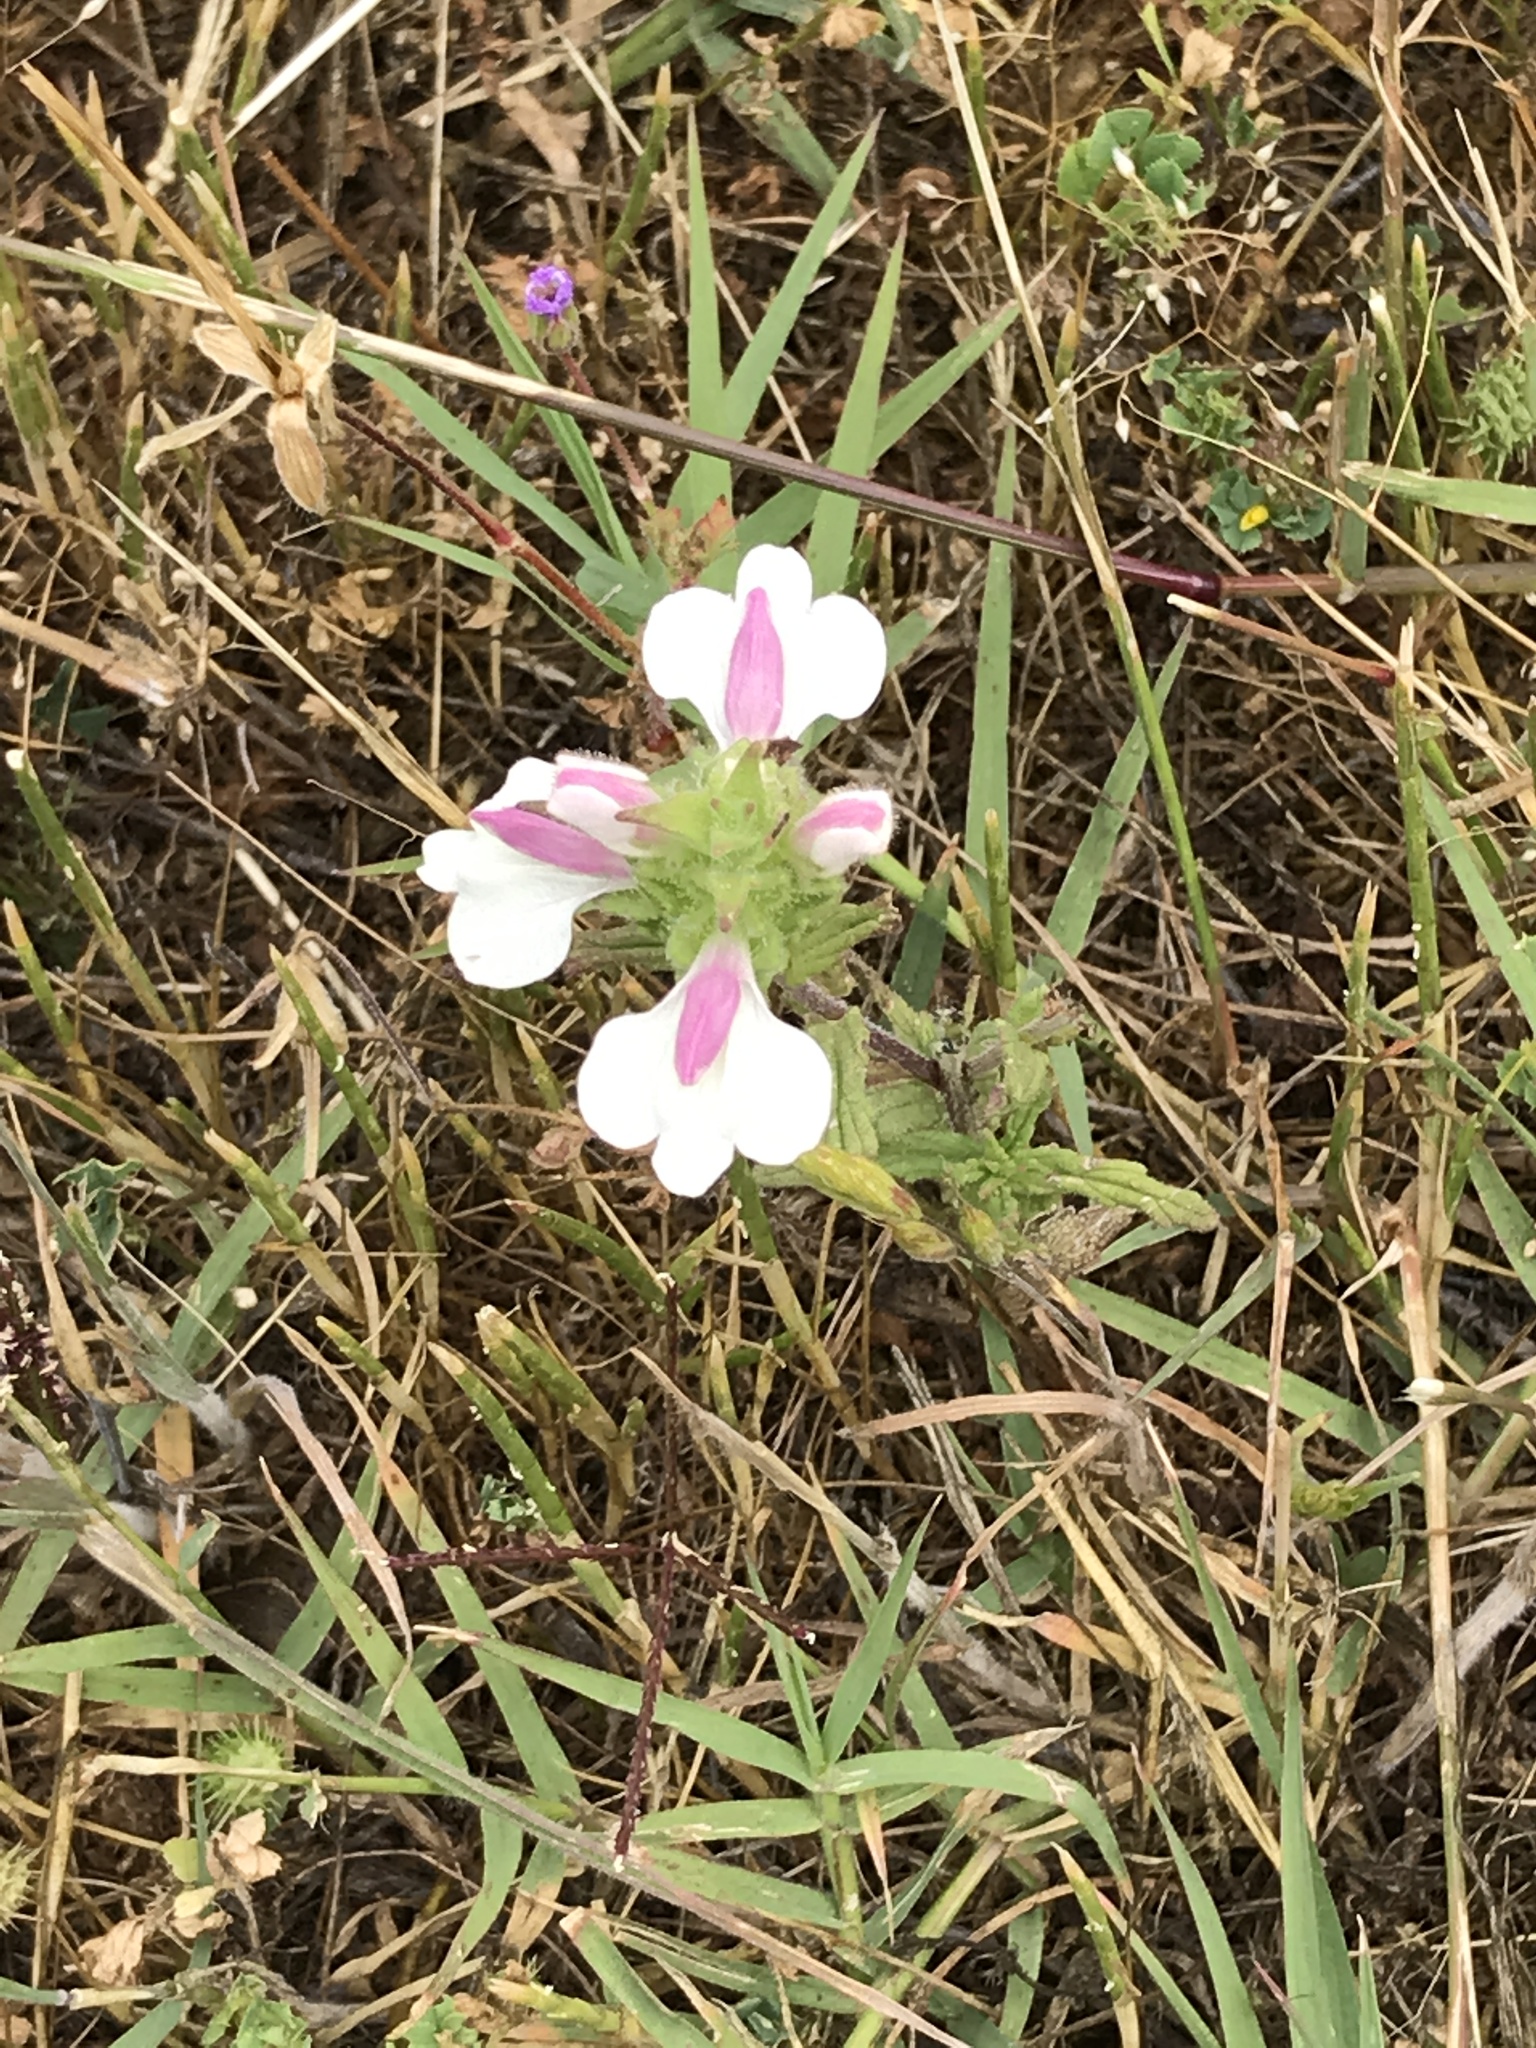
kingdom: Plantae
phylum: Tracheophyta
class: Magnoliopsida
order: Lamiales
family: Orobanchaceae
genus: Bellardia
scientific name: Bellardia trixago
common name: Mediterranean lineseed
